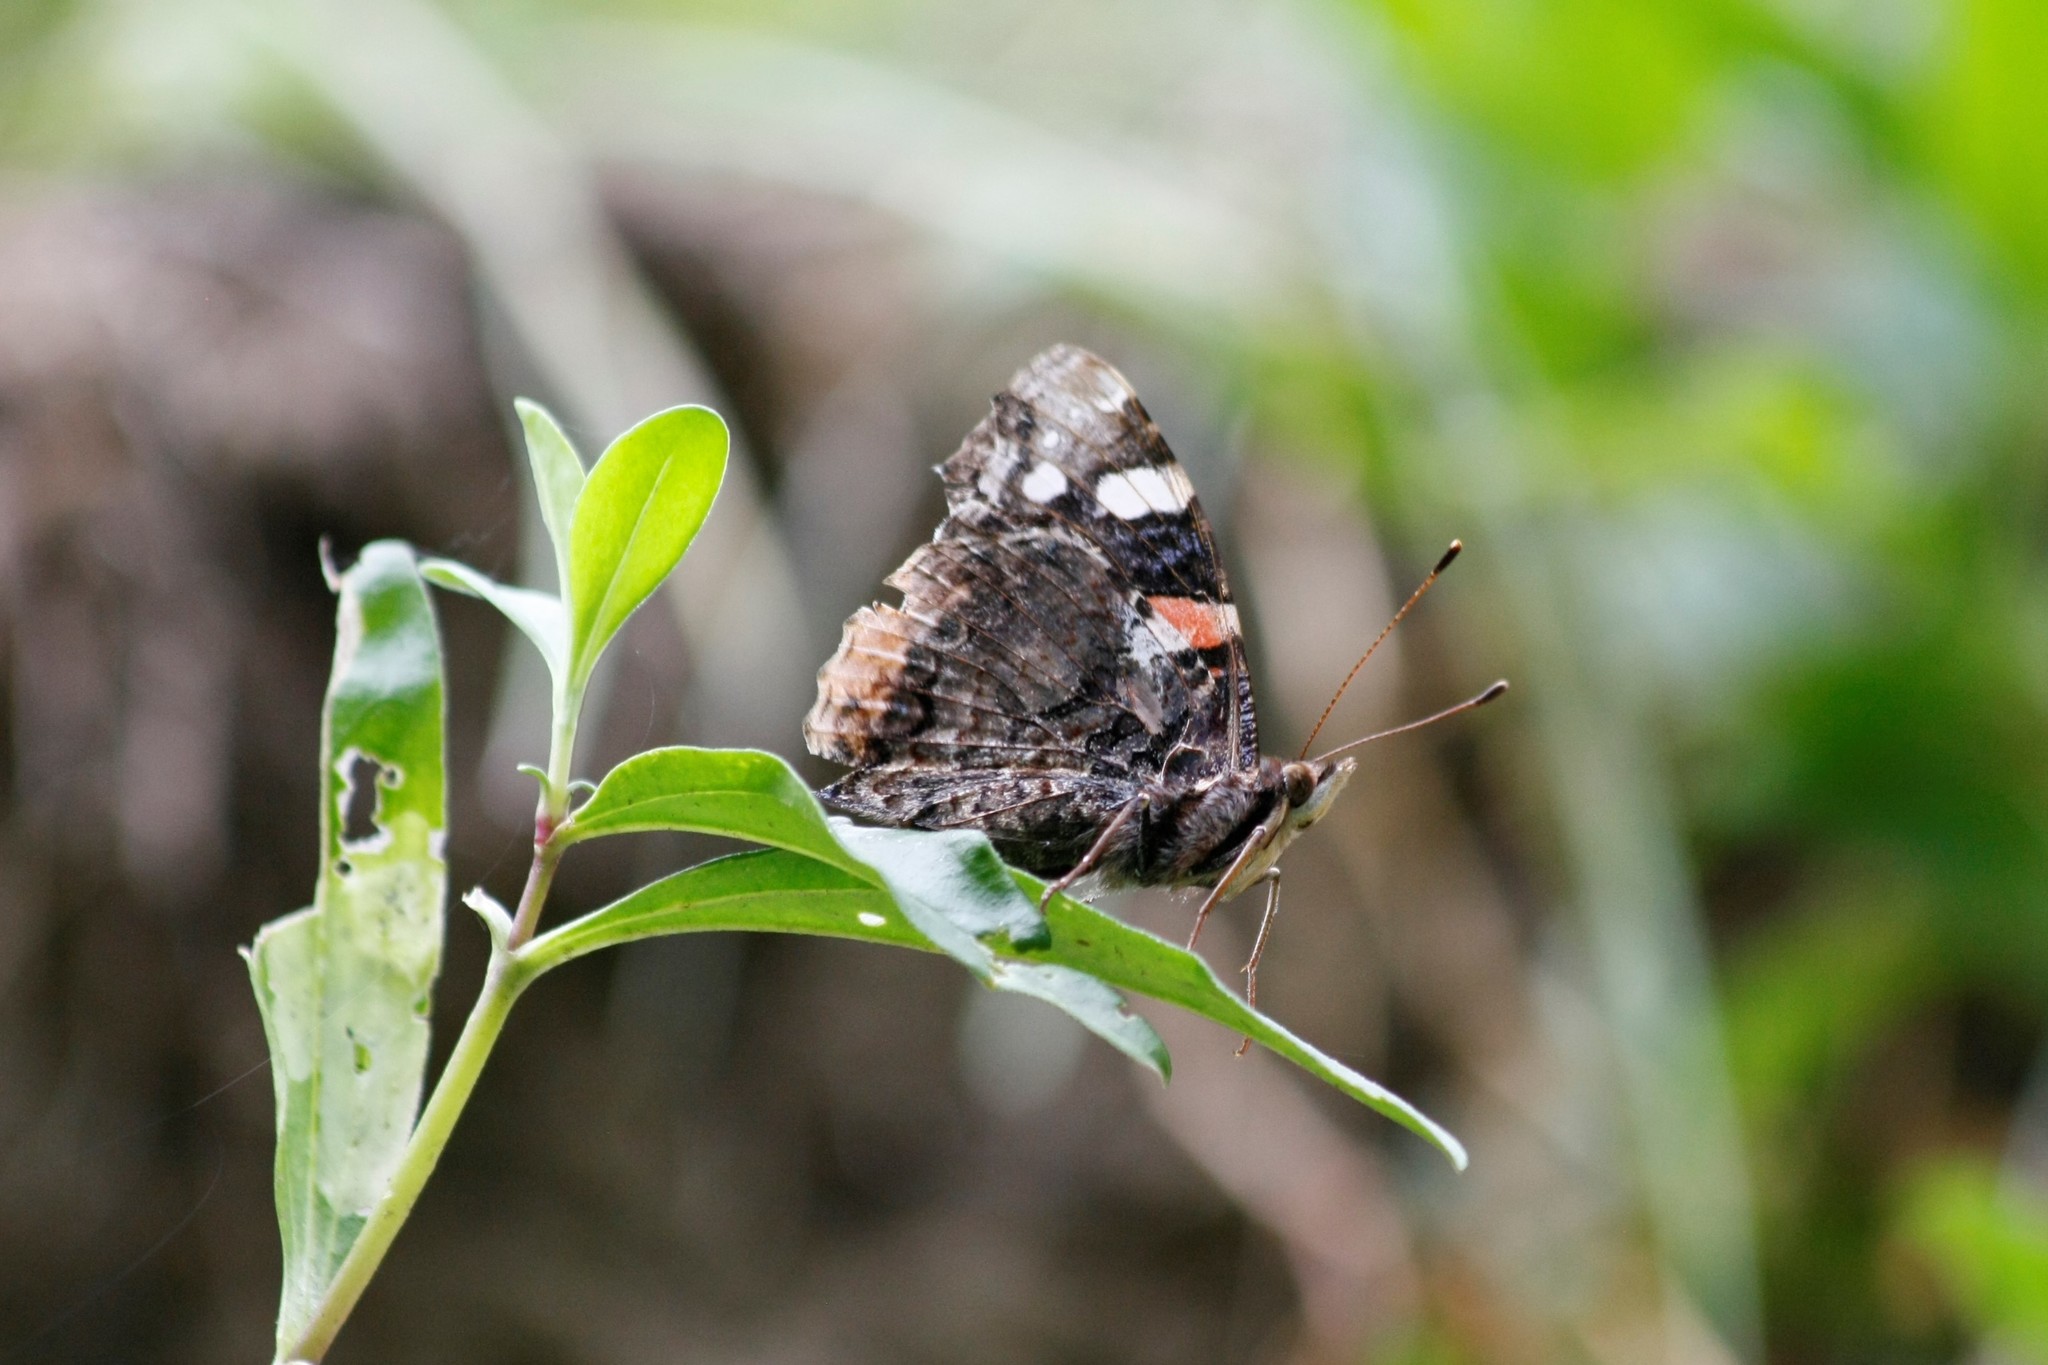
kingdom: Animalia
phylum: Arthropoda
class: Insecta
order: Lepidoptera
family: Nymphalidae
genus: Vanessa
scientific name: Vanessa atalanta
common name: Red admiral
